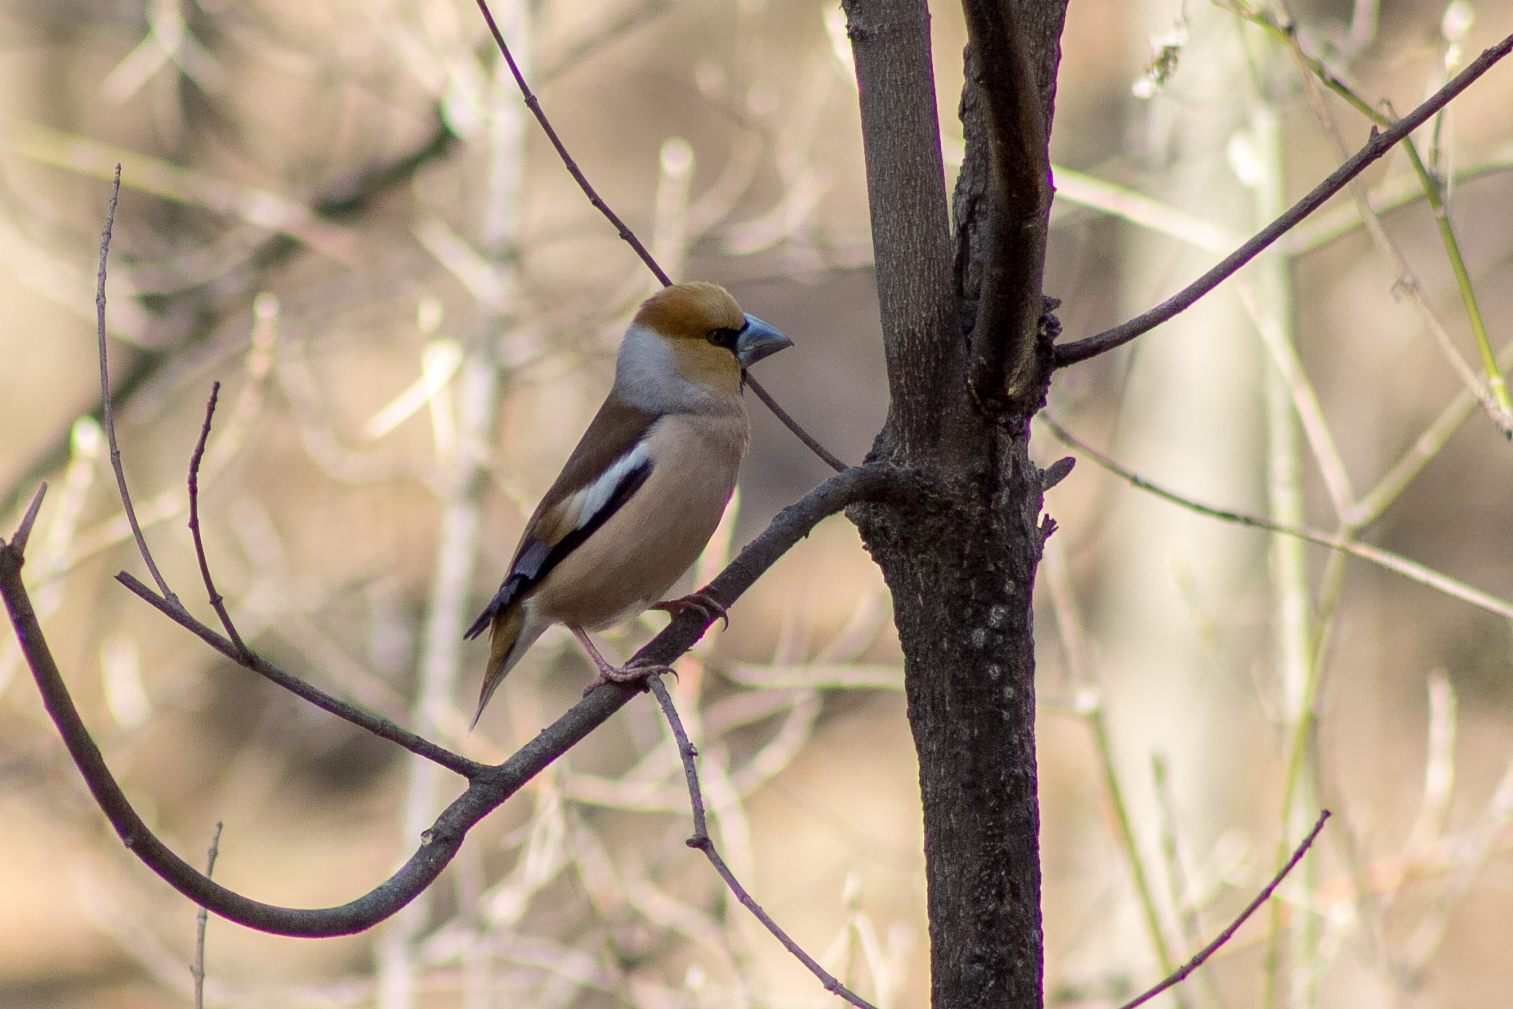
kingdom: Animalia
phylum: Chordata
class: Aves
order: Passeriformes
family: Fringillidae
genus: Coccothraustes
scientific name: Coccothraustes coccothraustes
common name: Hawfinch
